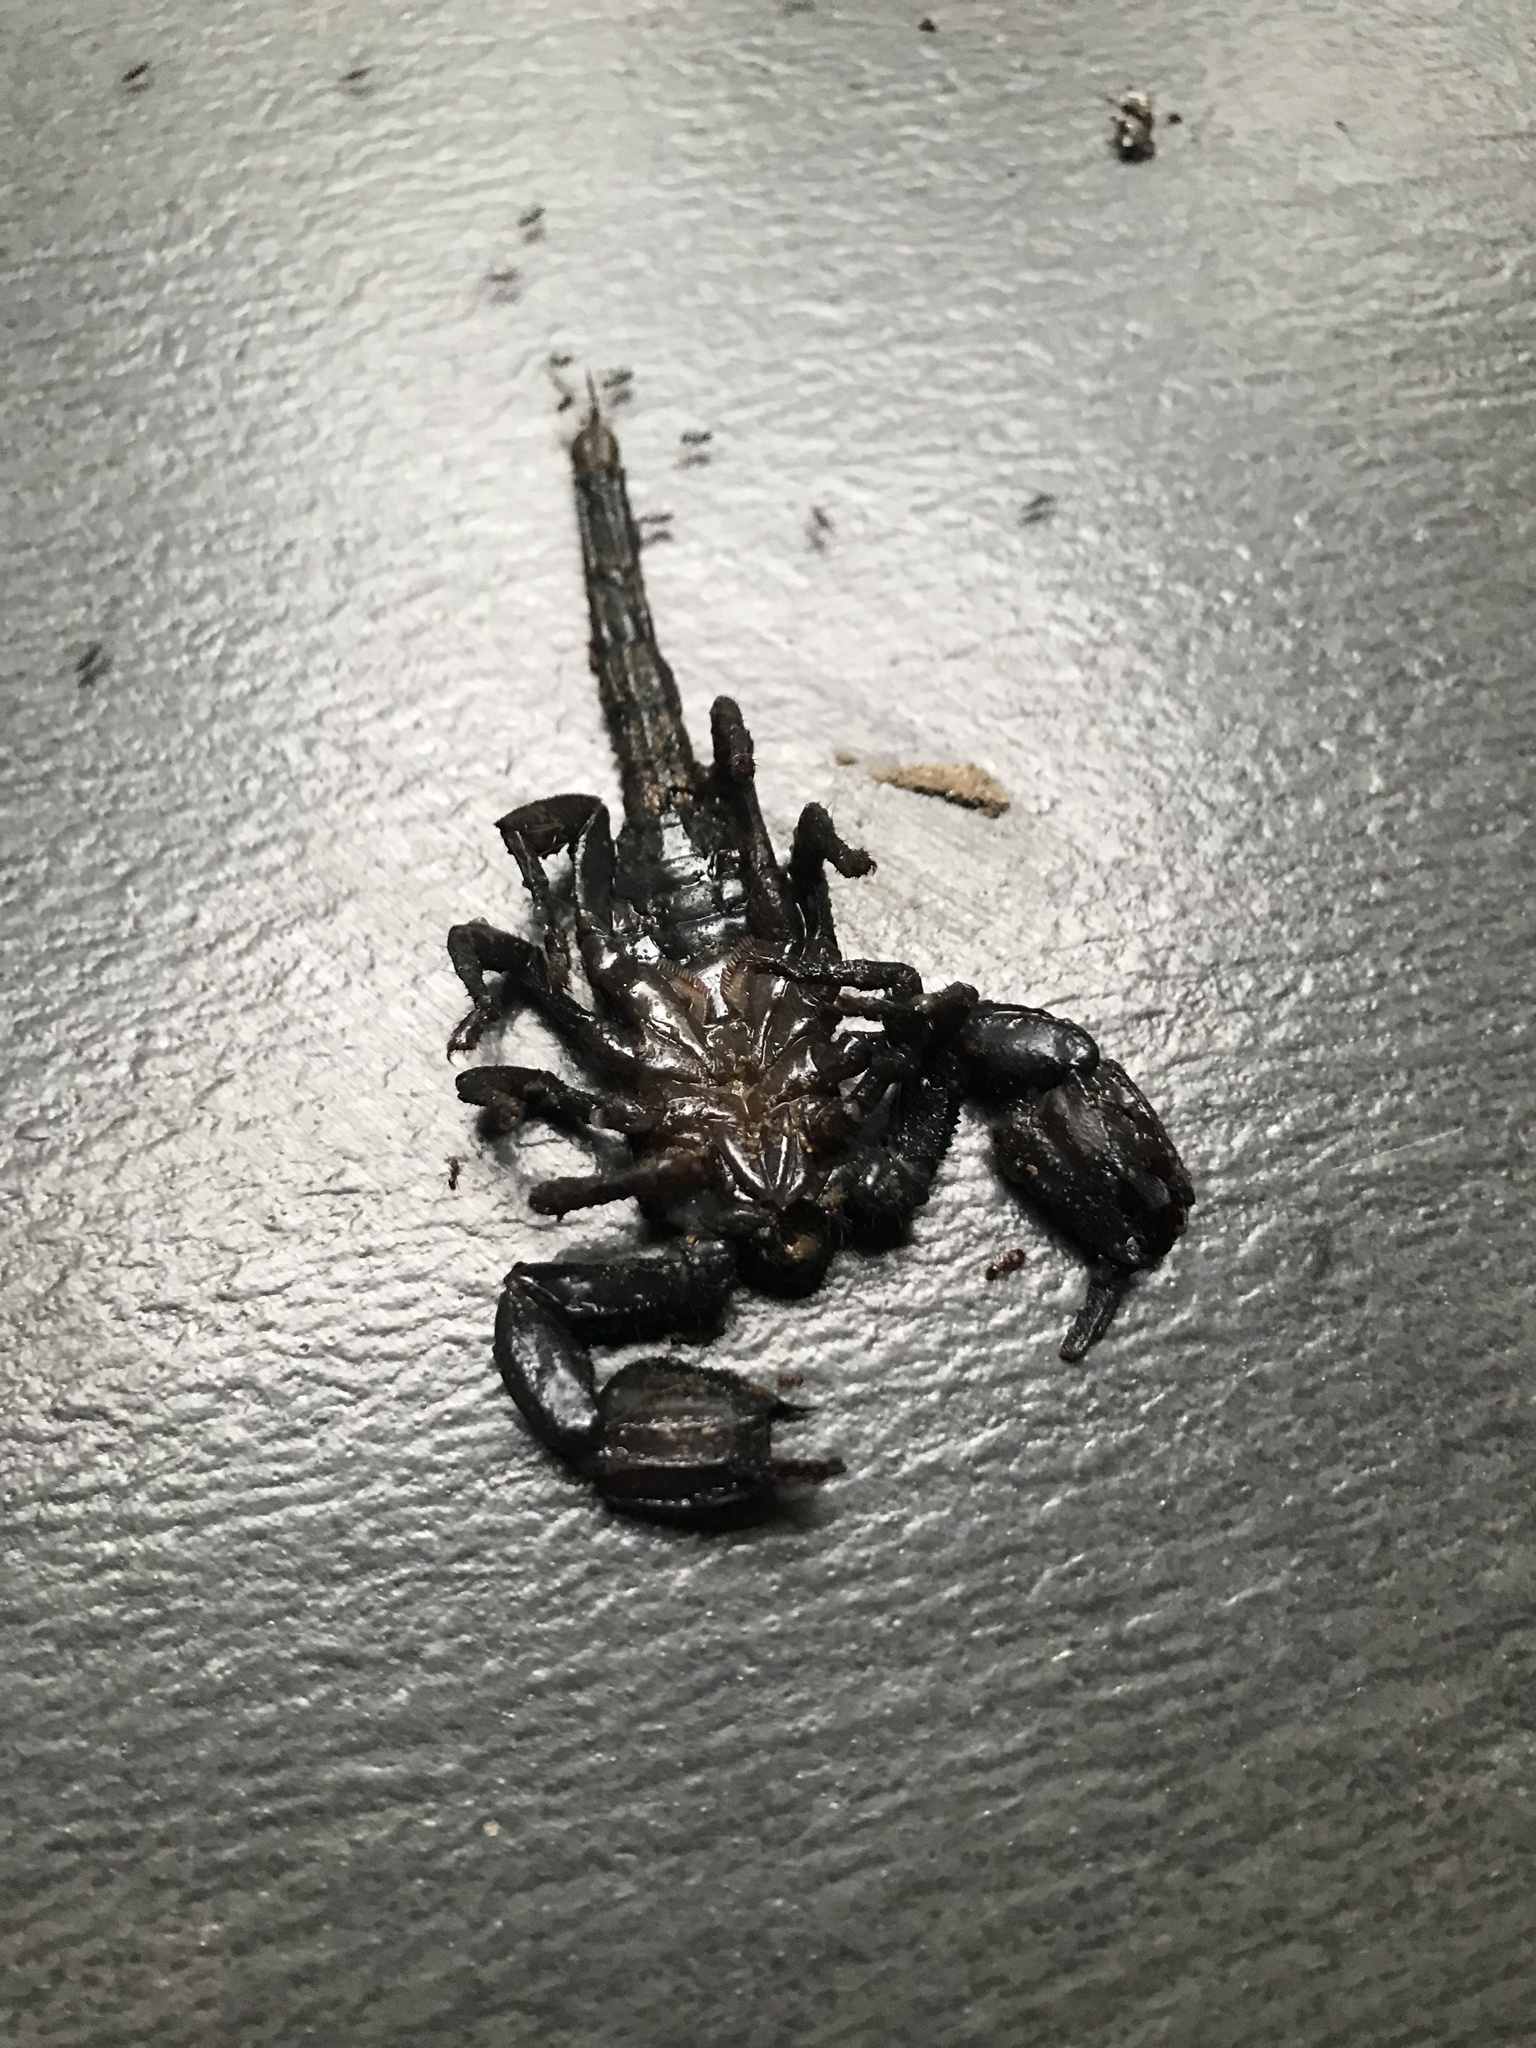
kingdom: Animalia
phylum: Arthropoda
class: Arachnida
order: Scorpiones
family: Scorpionidae
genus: Heterometrus
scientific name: Heterometrus thorellii
